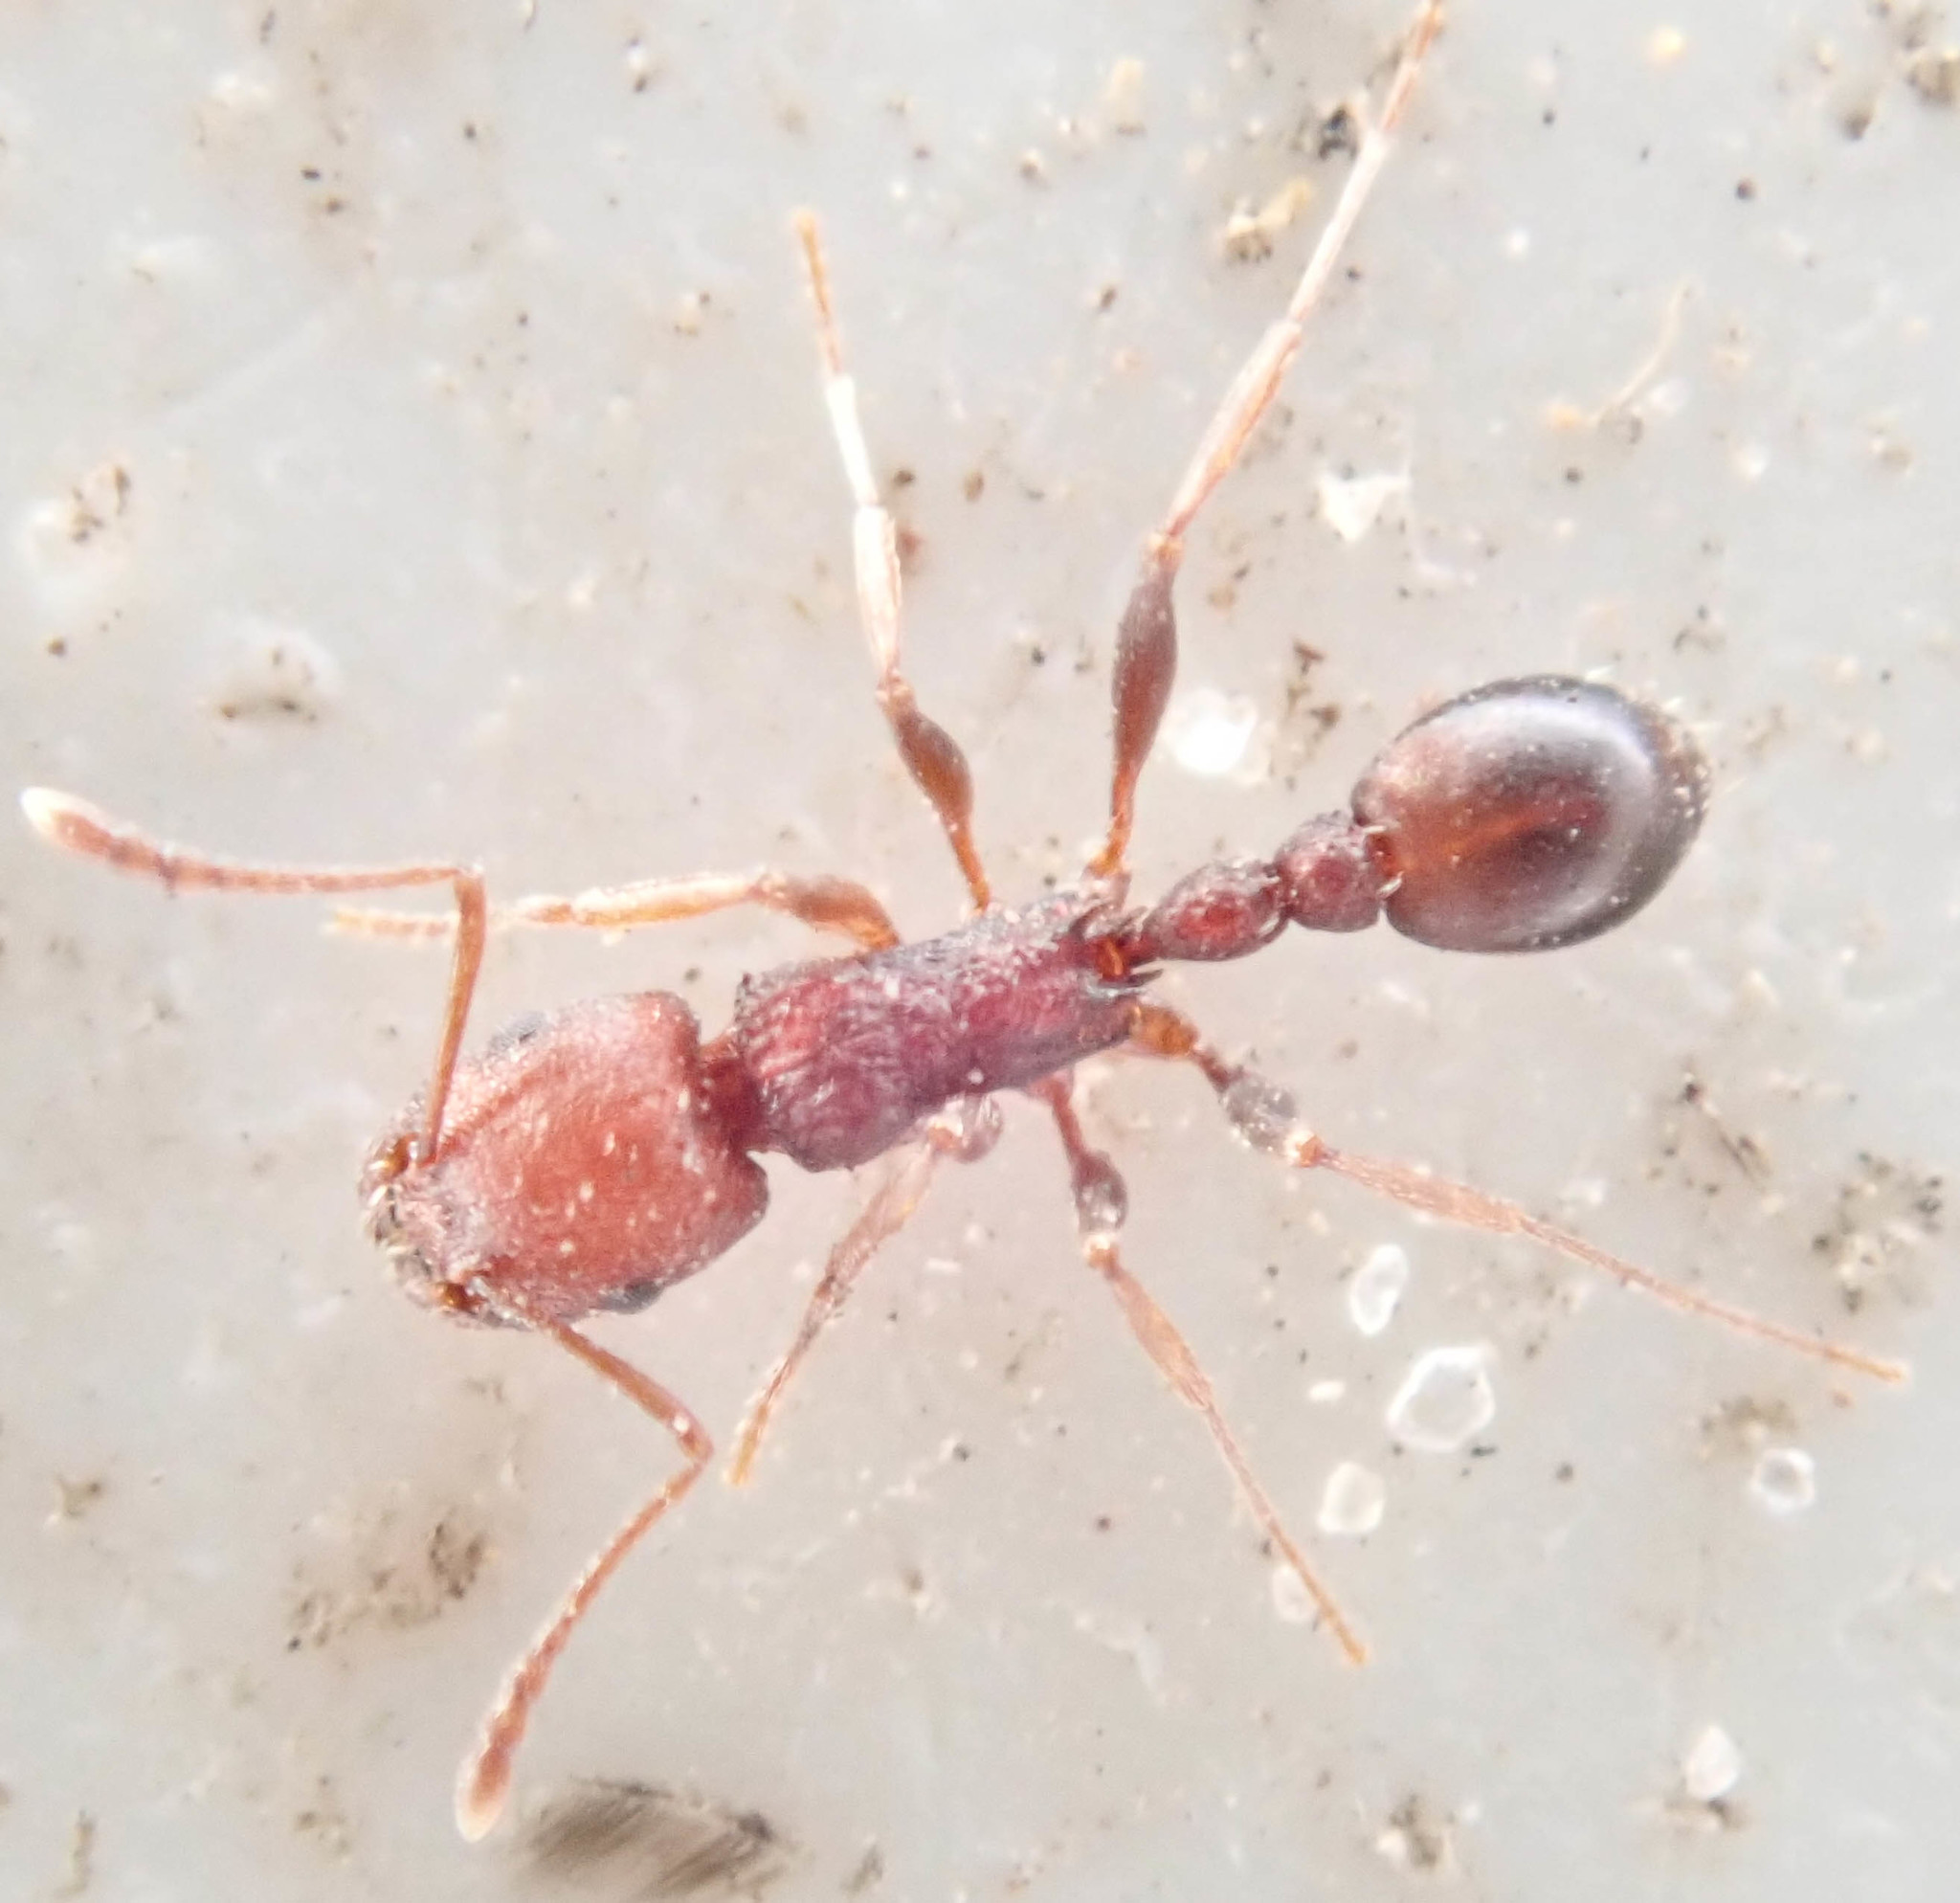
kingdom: Animalia
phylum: Arthropoda
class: Insecta
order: Hymenoptera
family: Formicidae
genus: Tetramorium
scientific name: Tetramorium sericeiventre
